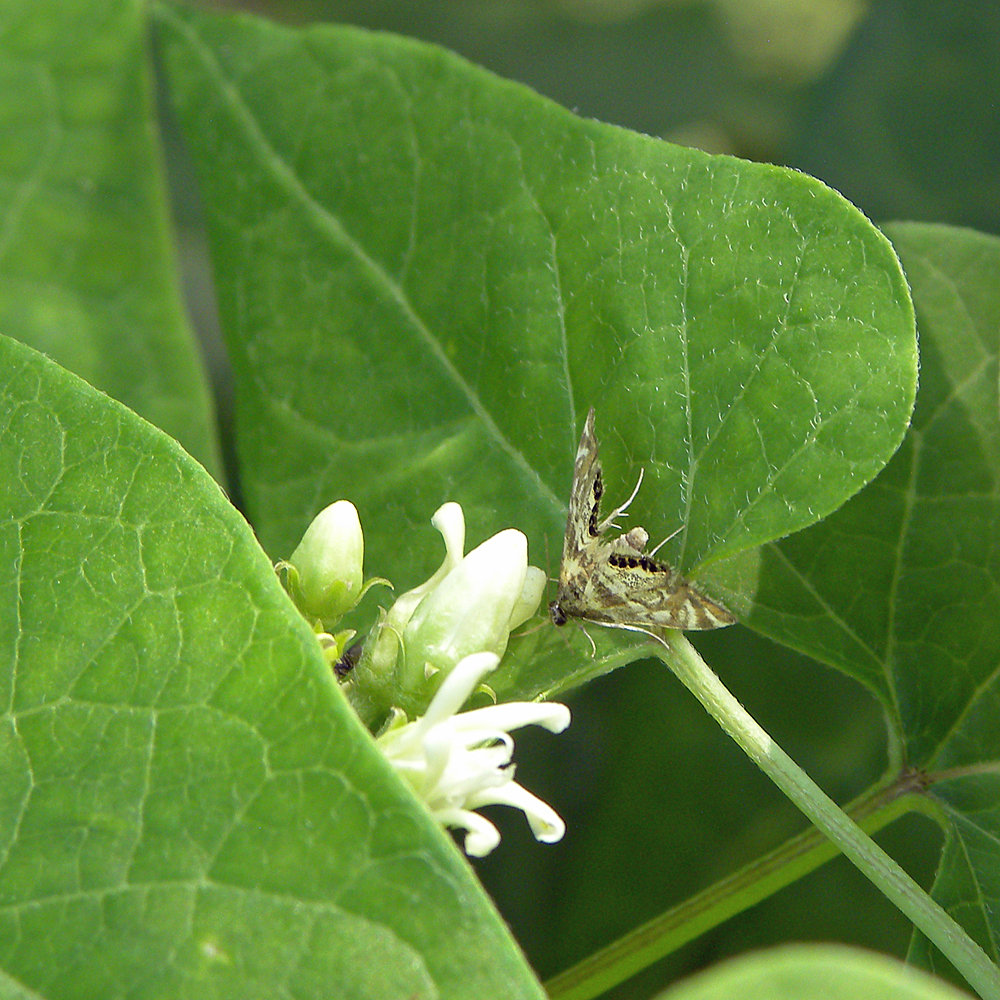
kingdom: Plantae
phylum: Tracheophyta
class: Magnoliopsida
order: Gentianales
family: Apocynaceae
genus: Cynanchum
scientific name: Cynanchum laeve
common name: Sandvine
